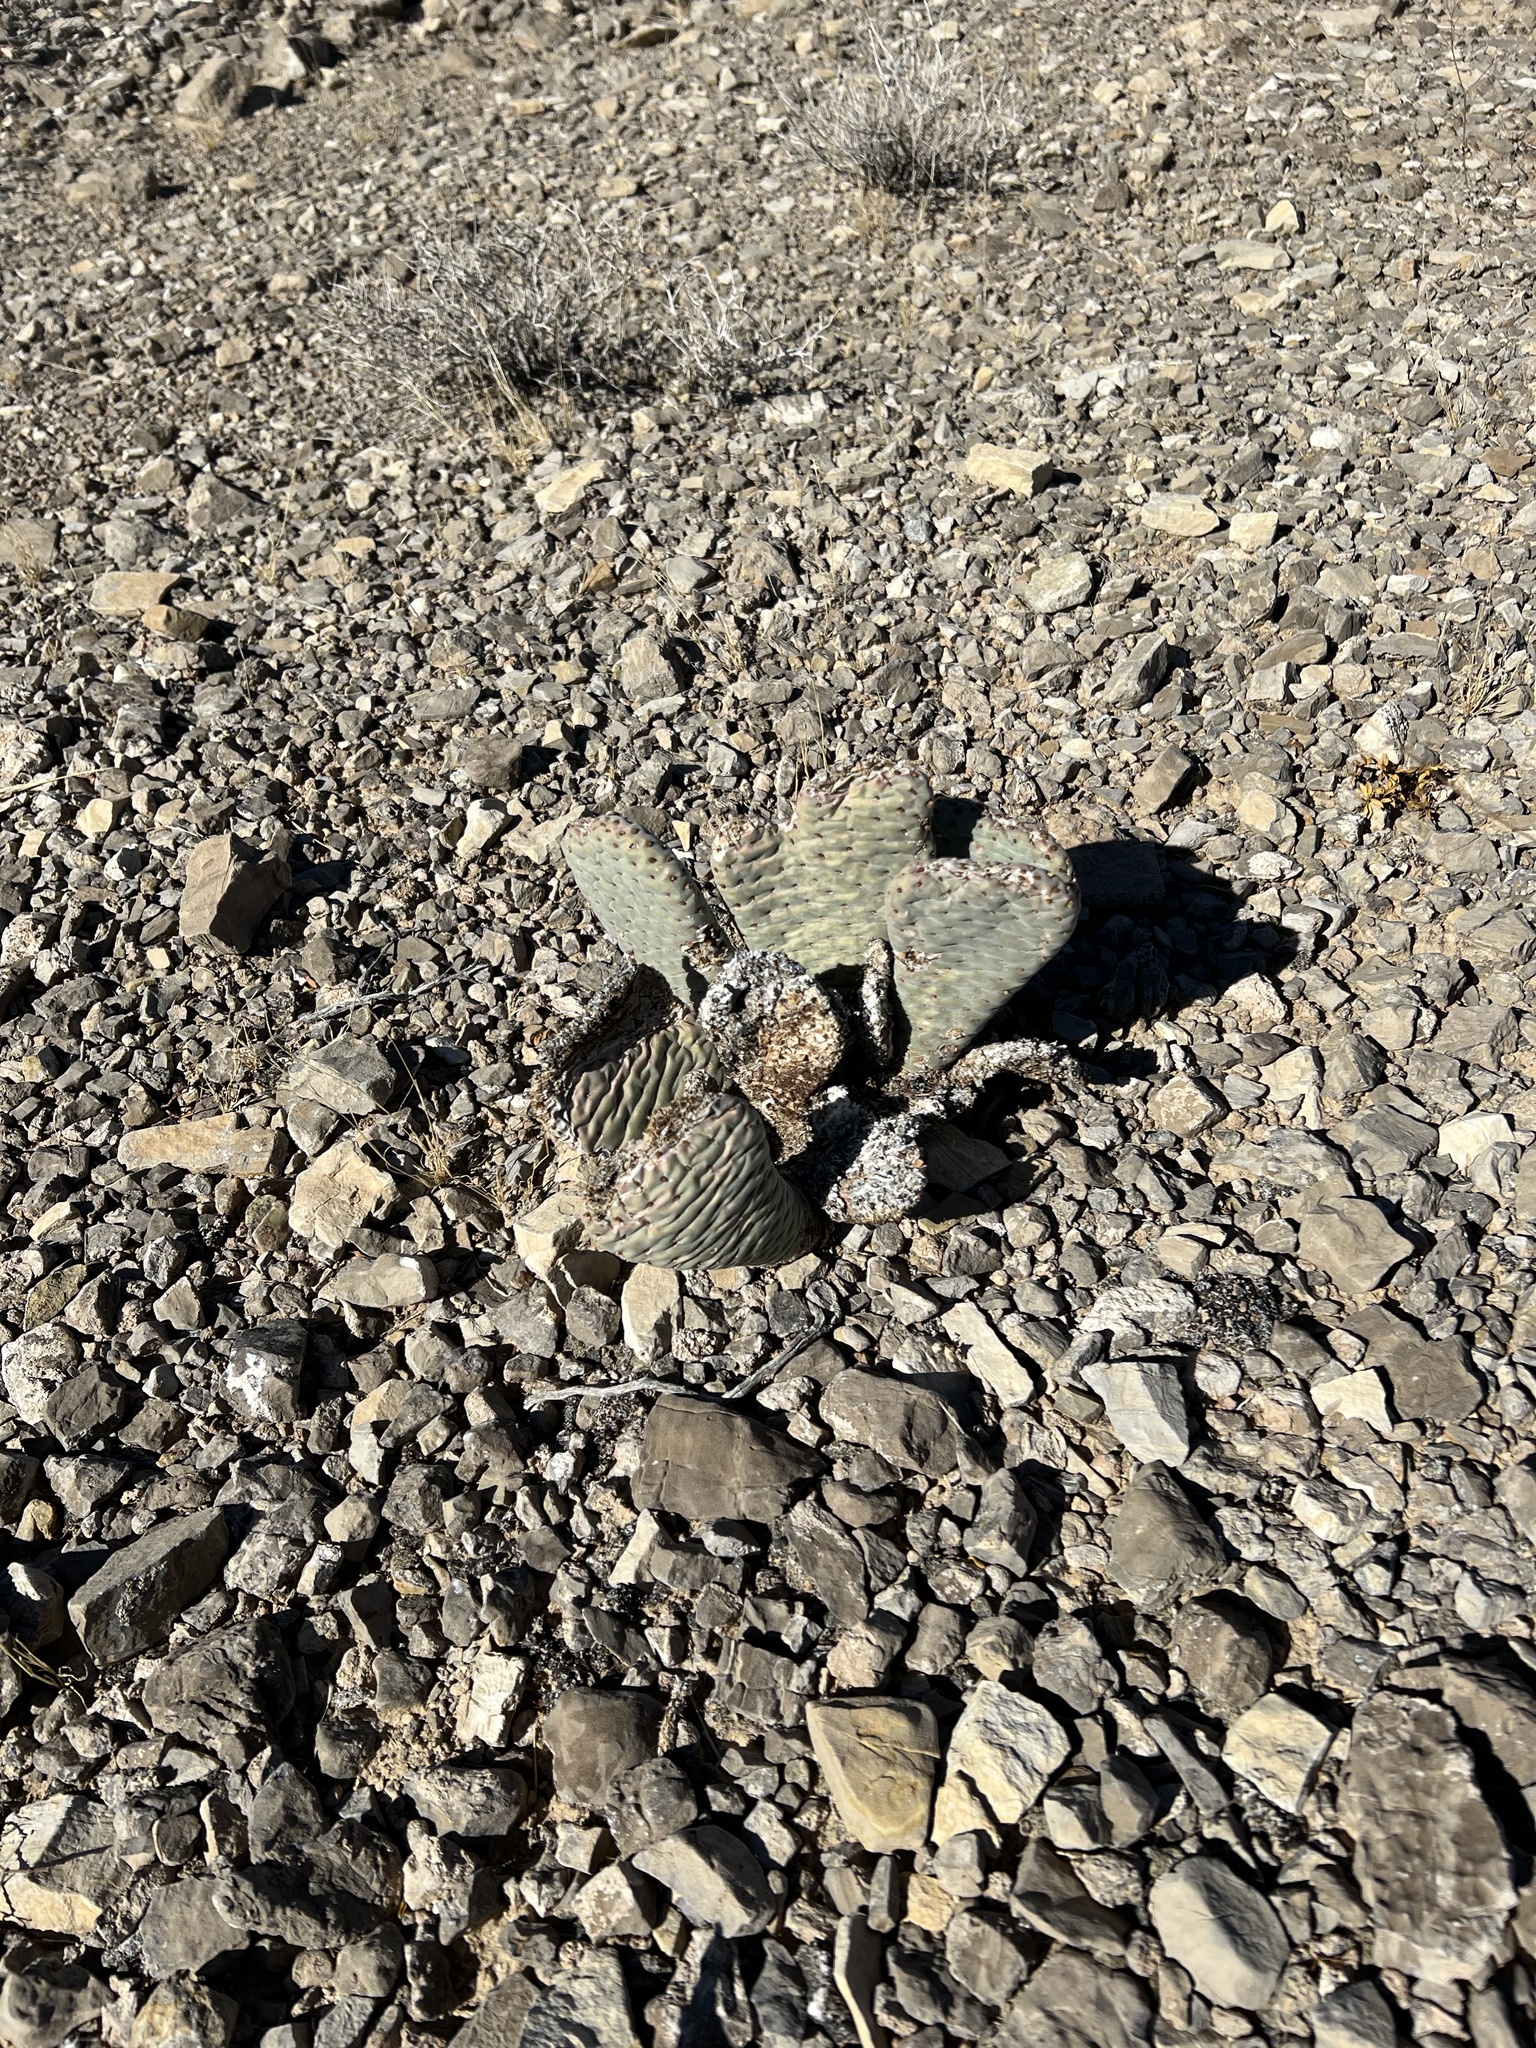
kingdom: Plantae
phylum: Tracheophyta
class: Magnoliopsida
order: Caryophyllales
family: Cactaceae
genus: Opuntia
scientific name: Opuntia basilaris
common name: Beavertail prickly-pear
